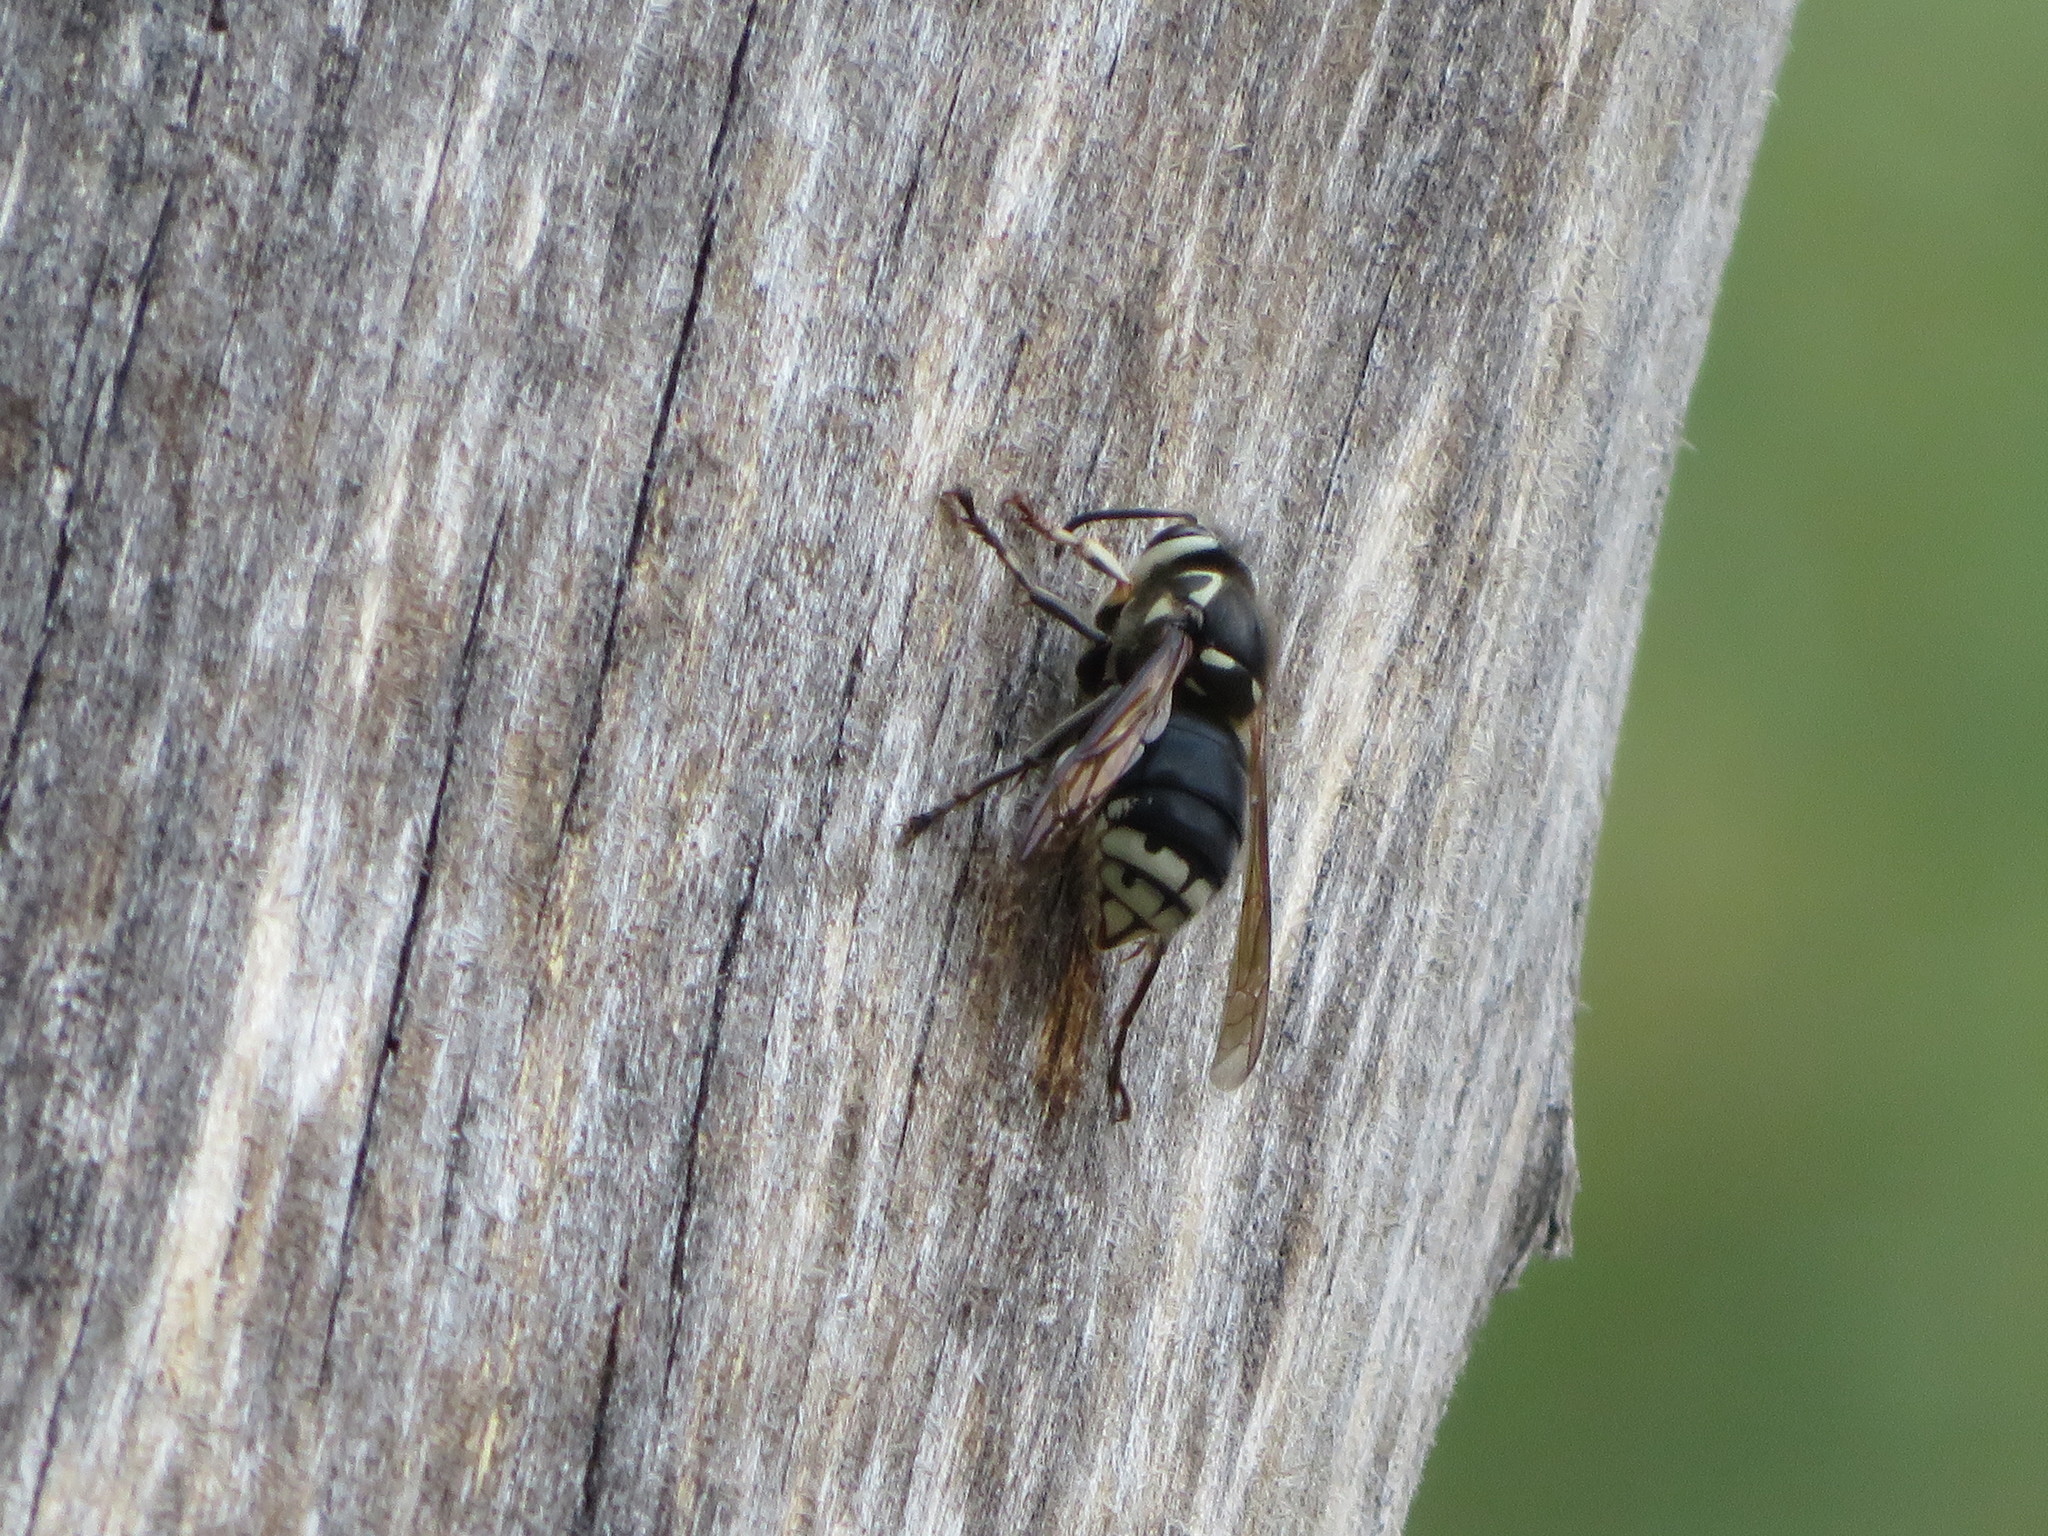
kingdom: Animalia
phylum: Arthropoda
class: Insecta
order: Hymenoptera
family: Vespidae
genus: Dolichovespula
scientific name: Dolichovespula maculata
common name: Bald-faced hornet
